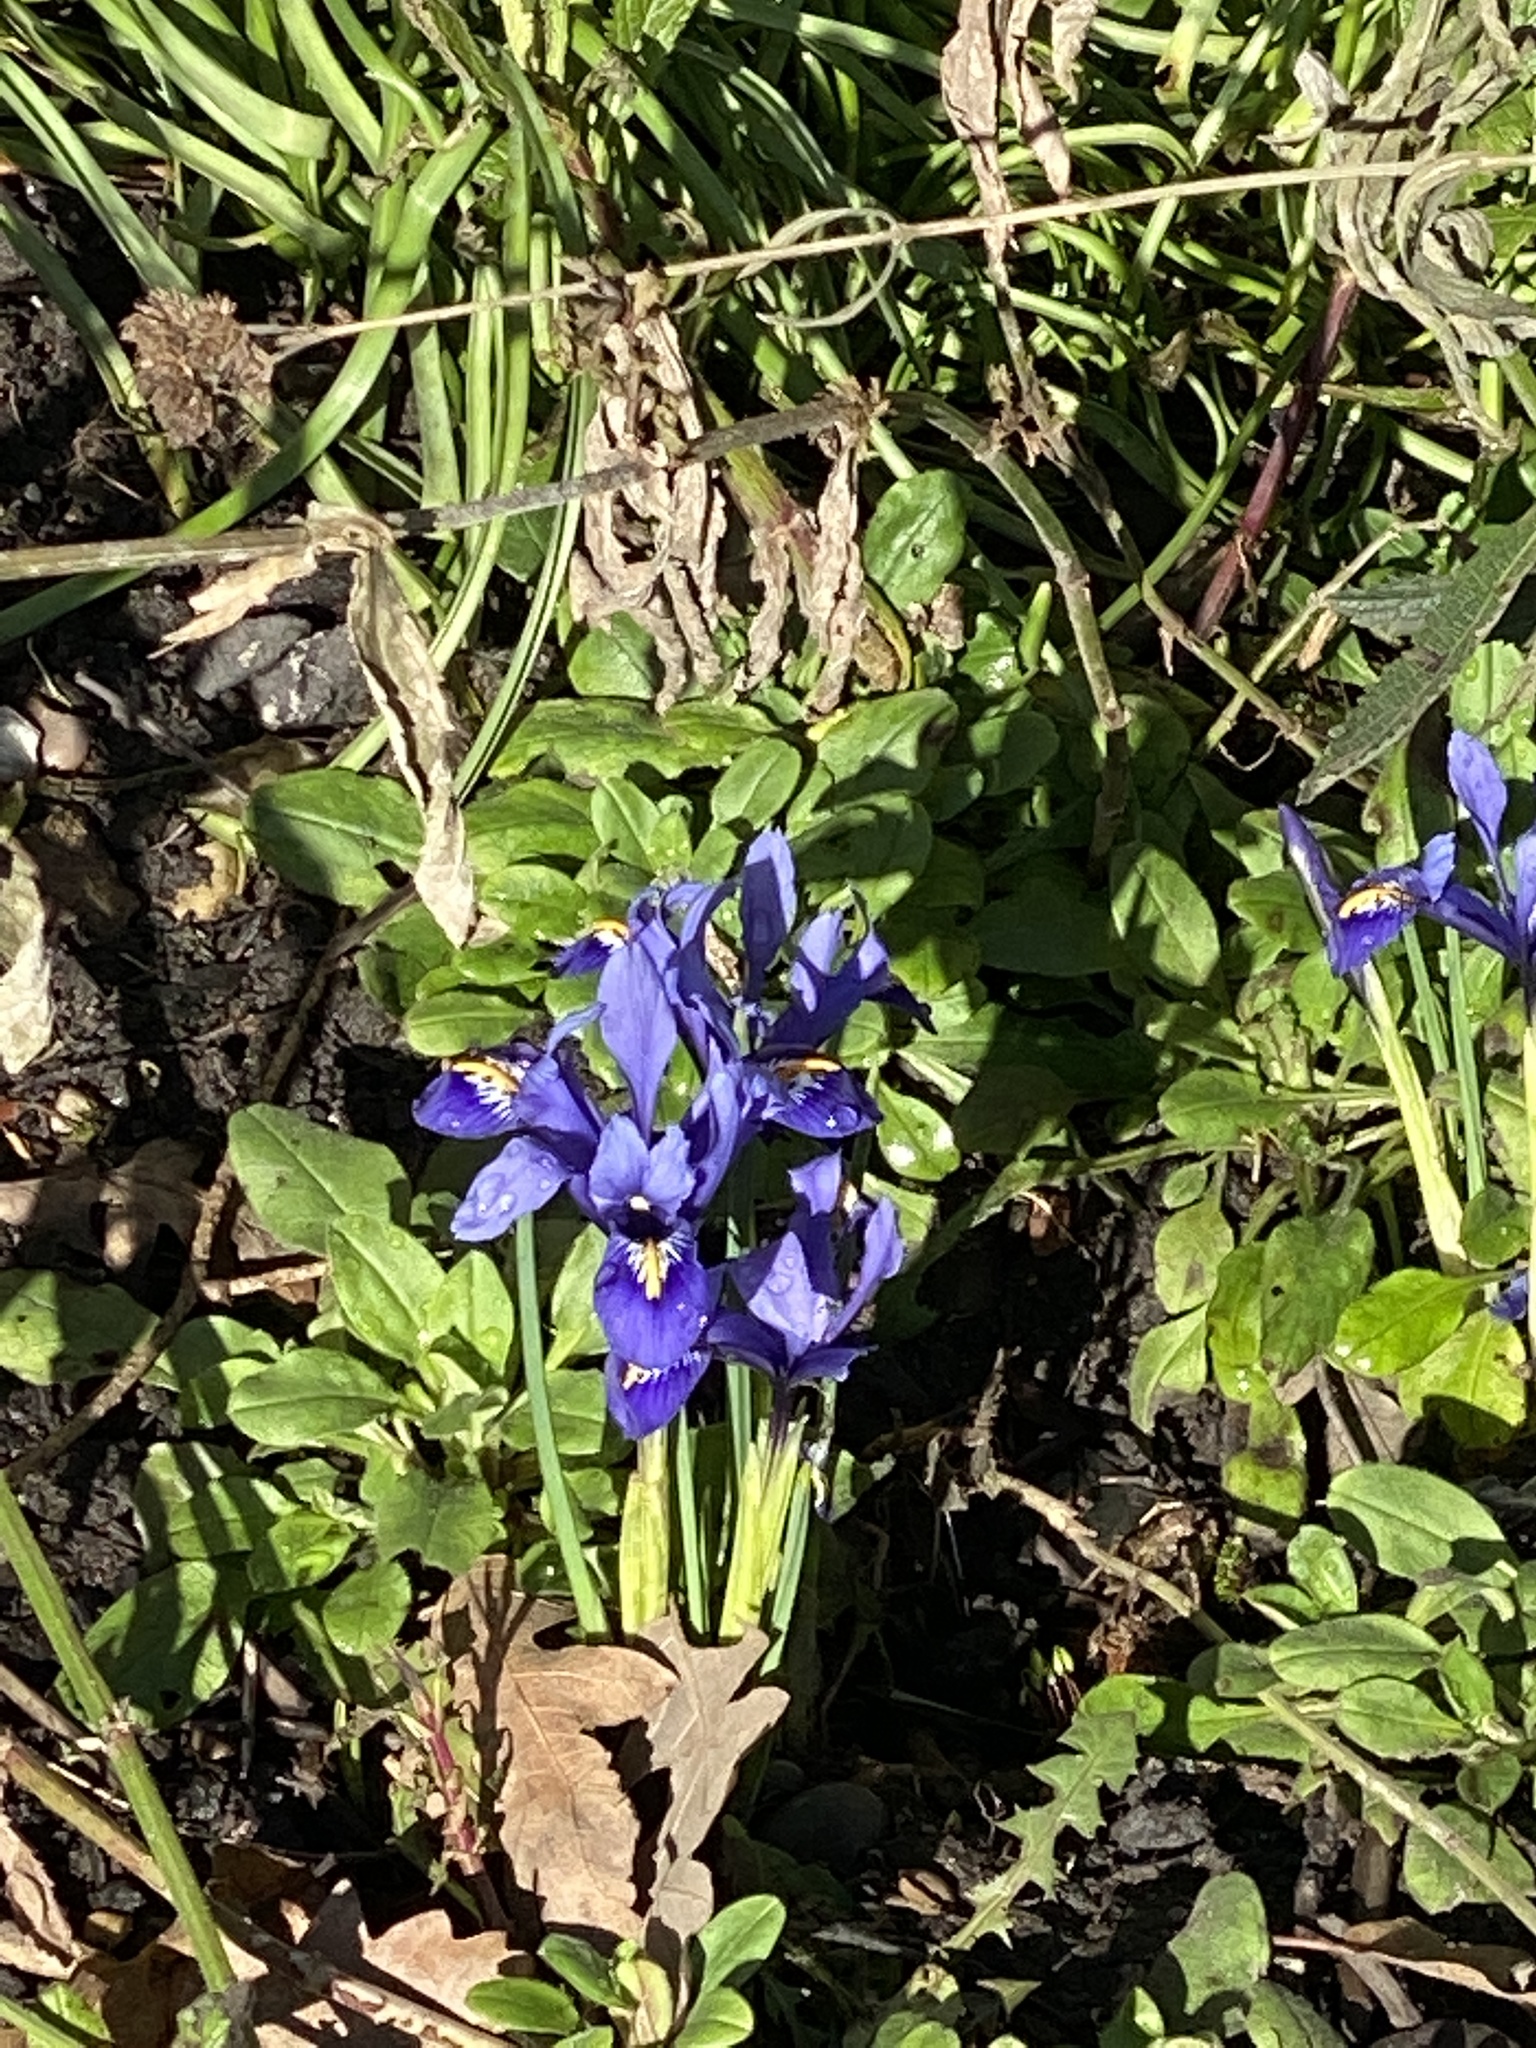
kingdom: Plantae
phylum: Tracheophyta
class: Liliopsida
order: Asparagales
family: Iridaceae
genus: Iris
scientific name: Iris histrioides
